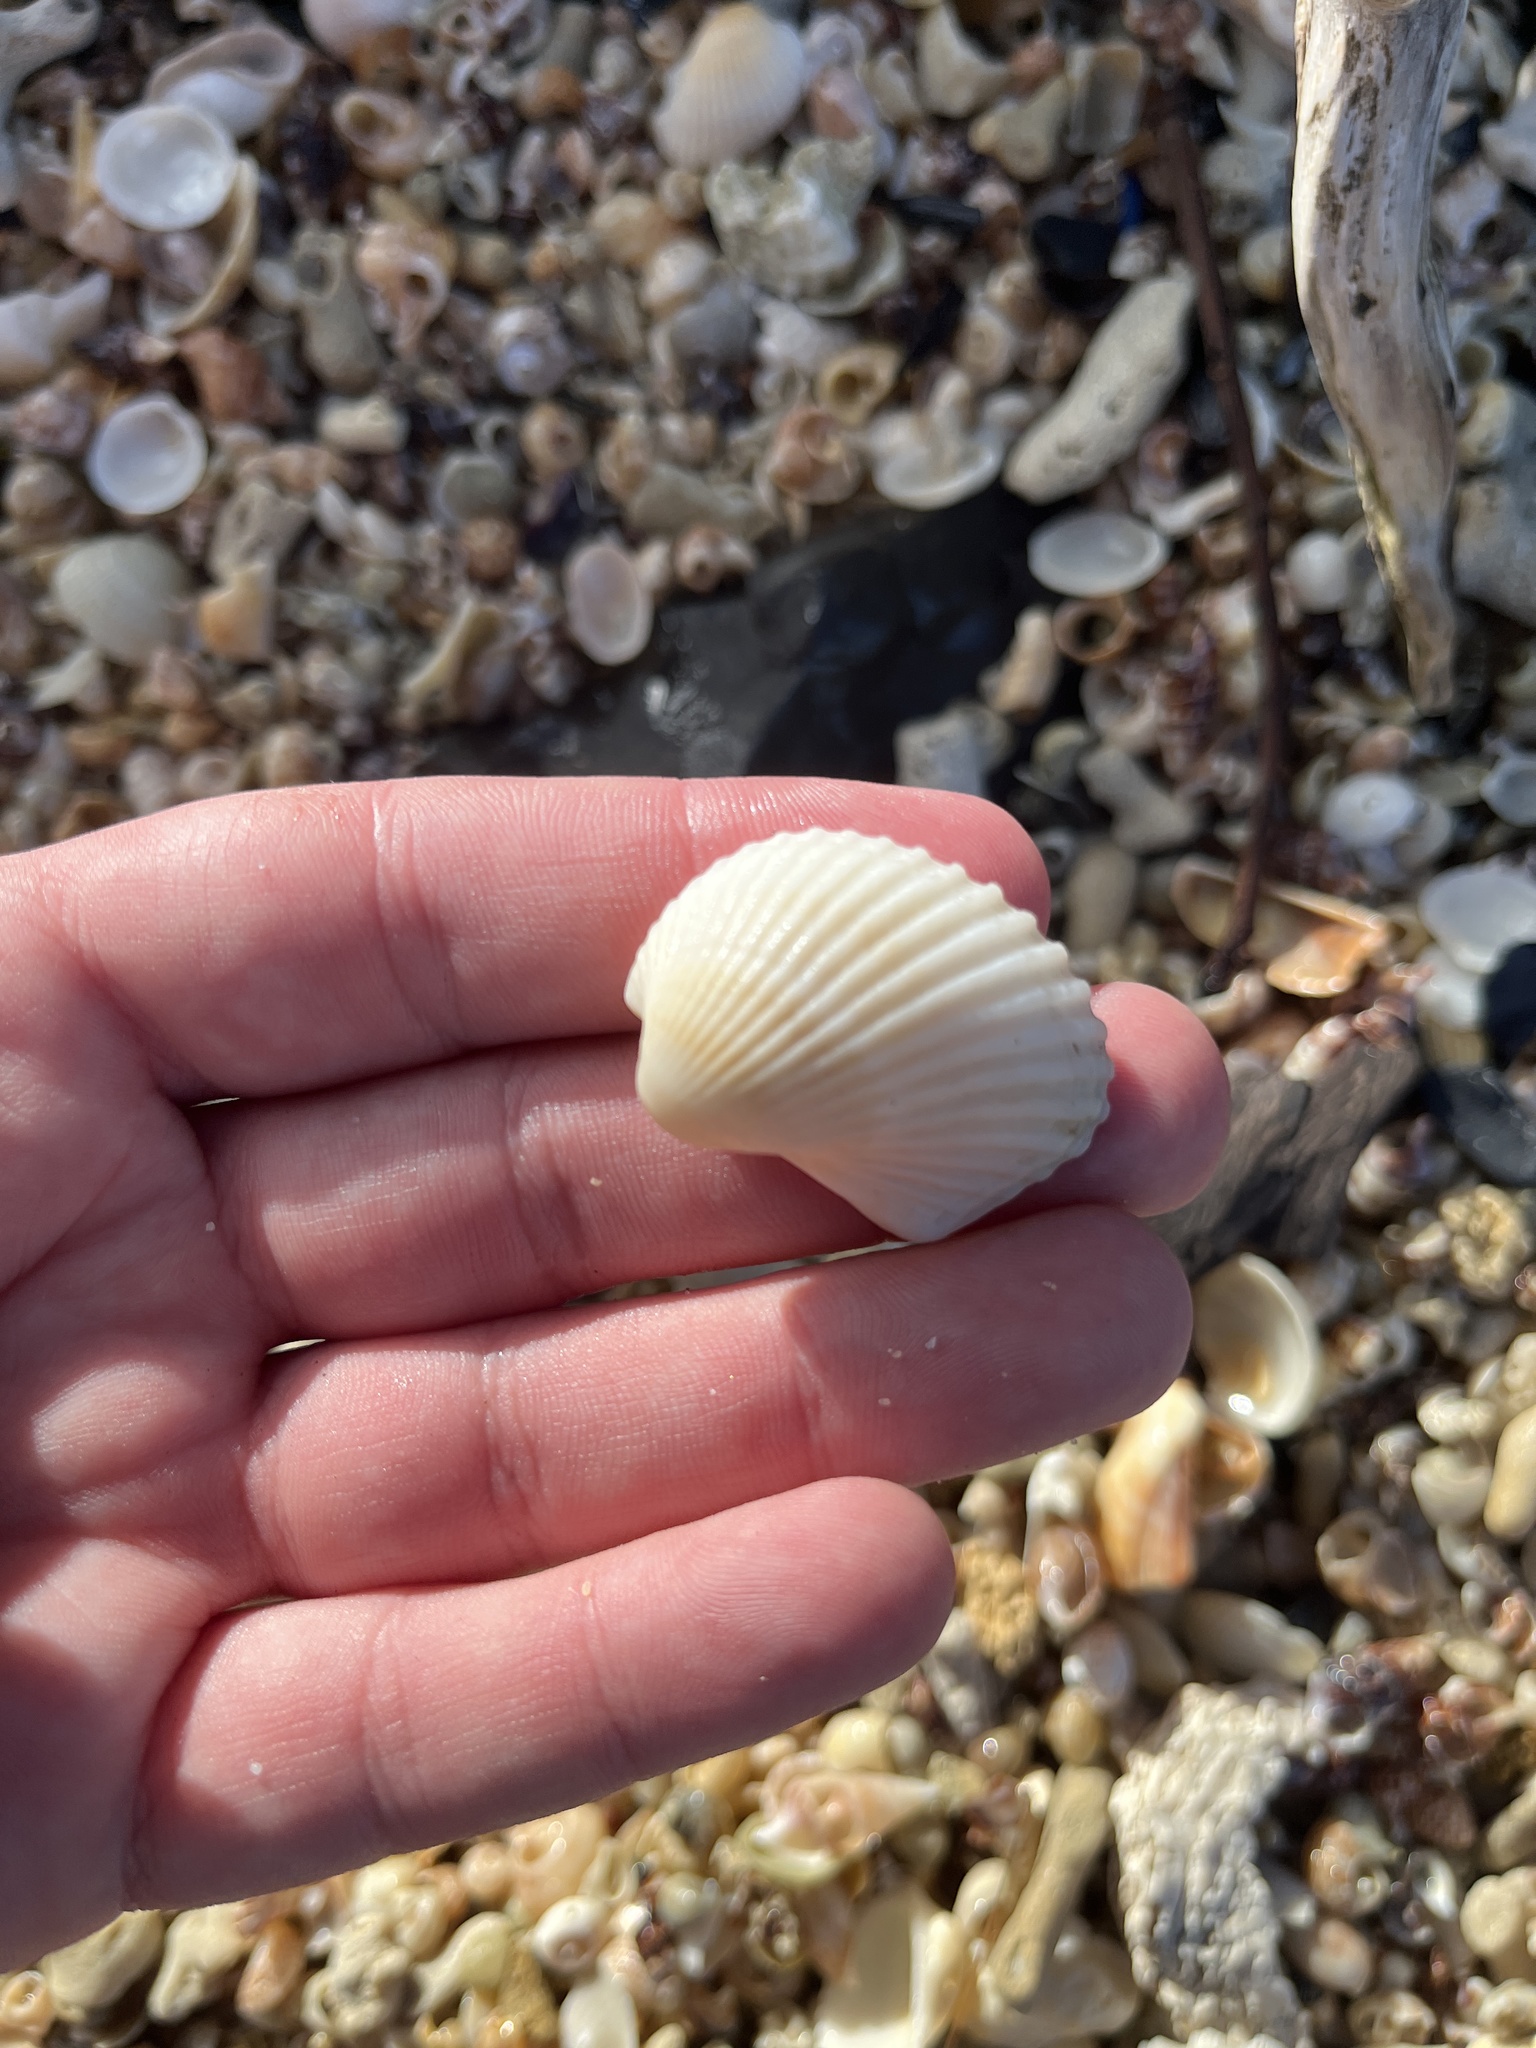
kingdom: Animalia
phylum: Mollusca
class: Bivalvia
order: Arcida
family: Arcidae
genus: Anadara
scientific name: Anadara notabilis
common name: Eared ark
